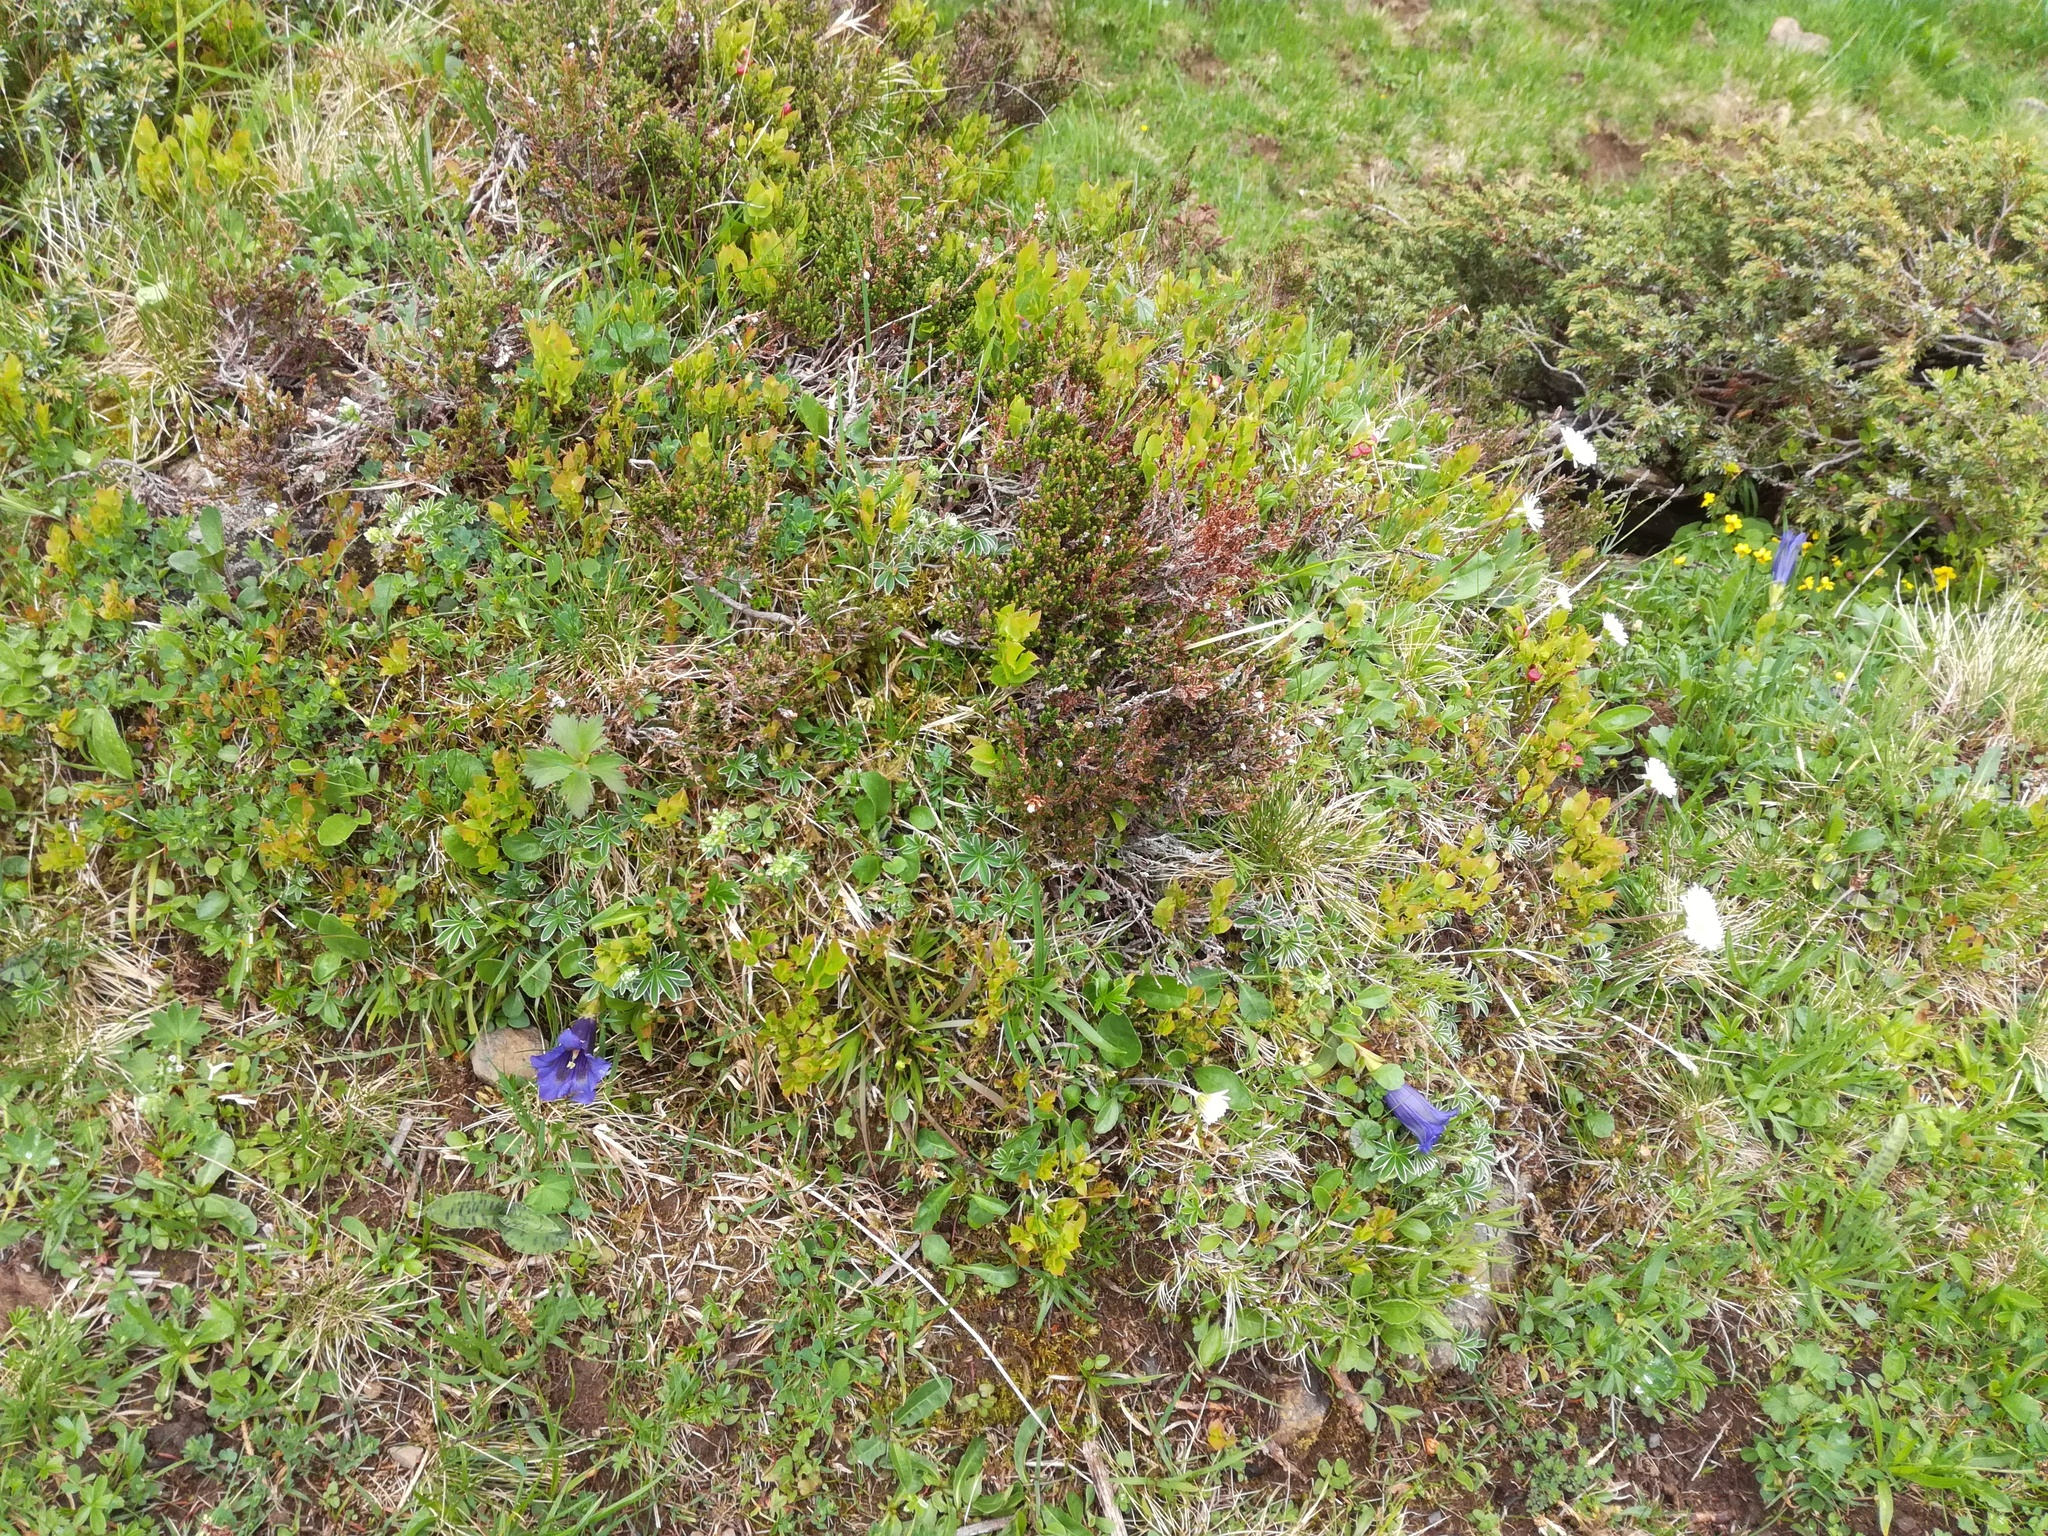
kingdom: Plantae
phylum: Tracheophyta
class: Magnoliopsida
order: Ericales
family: Ericaceae
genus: Vaccinium
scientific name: Vaccinium myrtillus
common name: Bilberry
